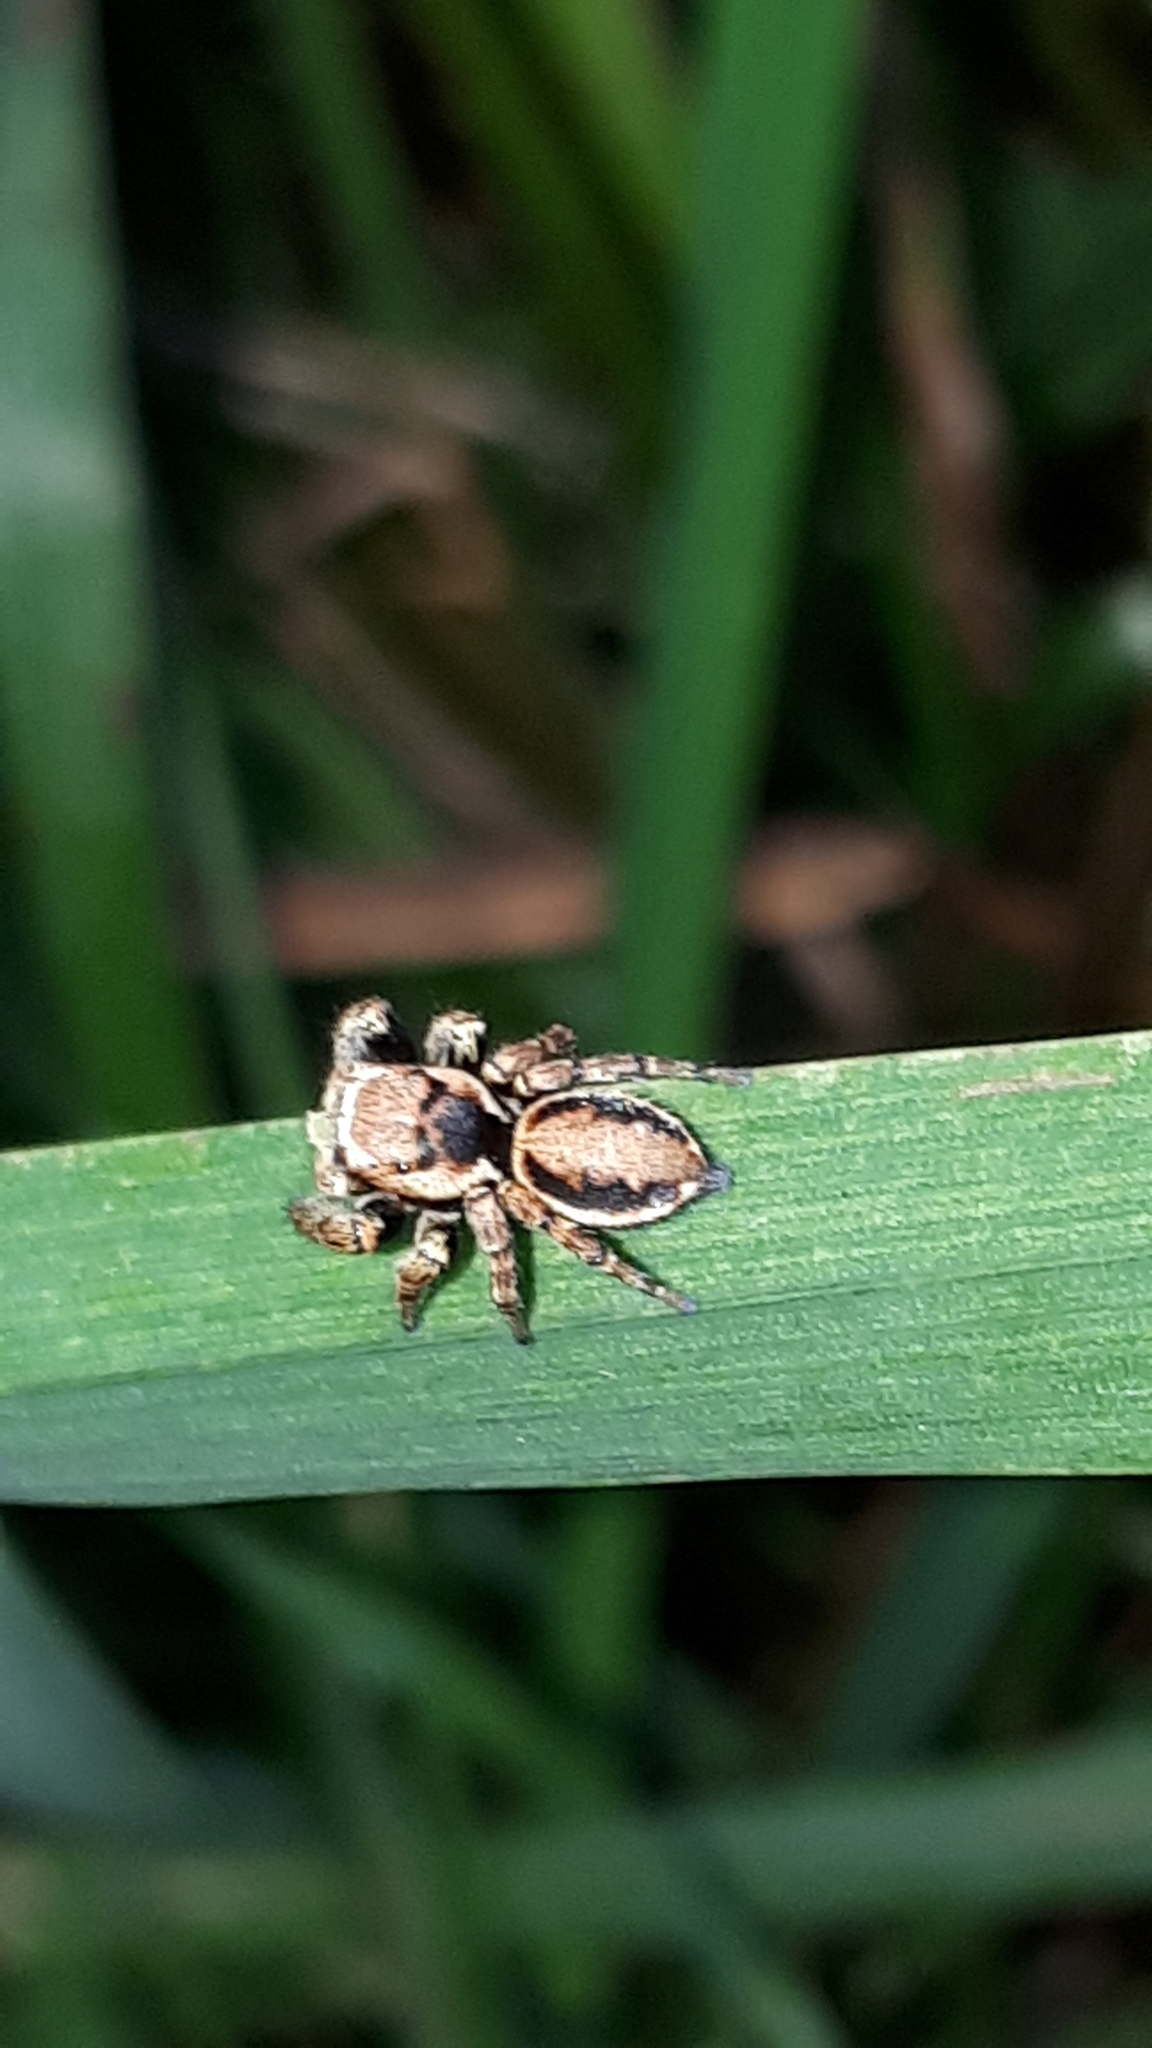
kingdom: Animalia
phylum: Arthropoda
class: Arachnida
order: Araneae
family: Salticidae
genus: Evarcha
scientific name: Evarcha falcata
